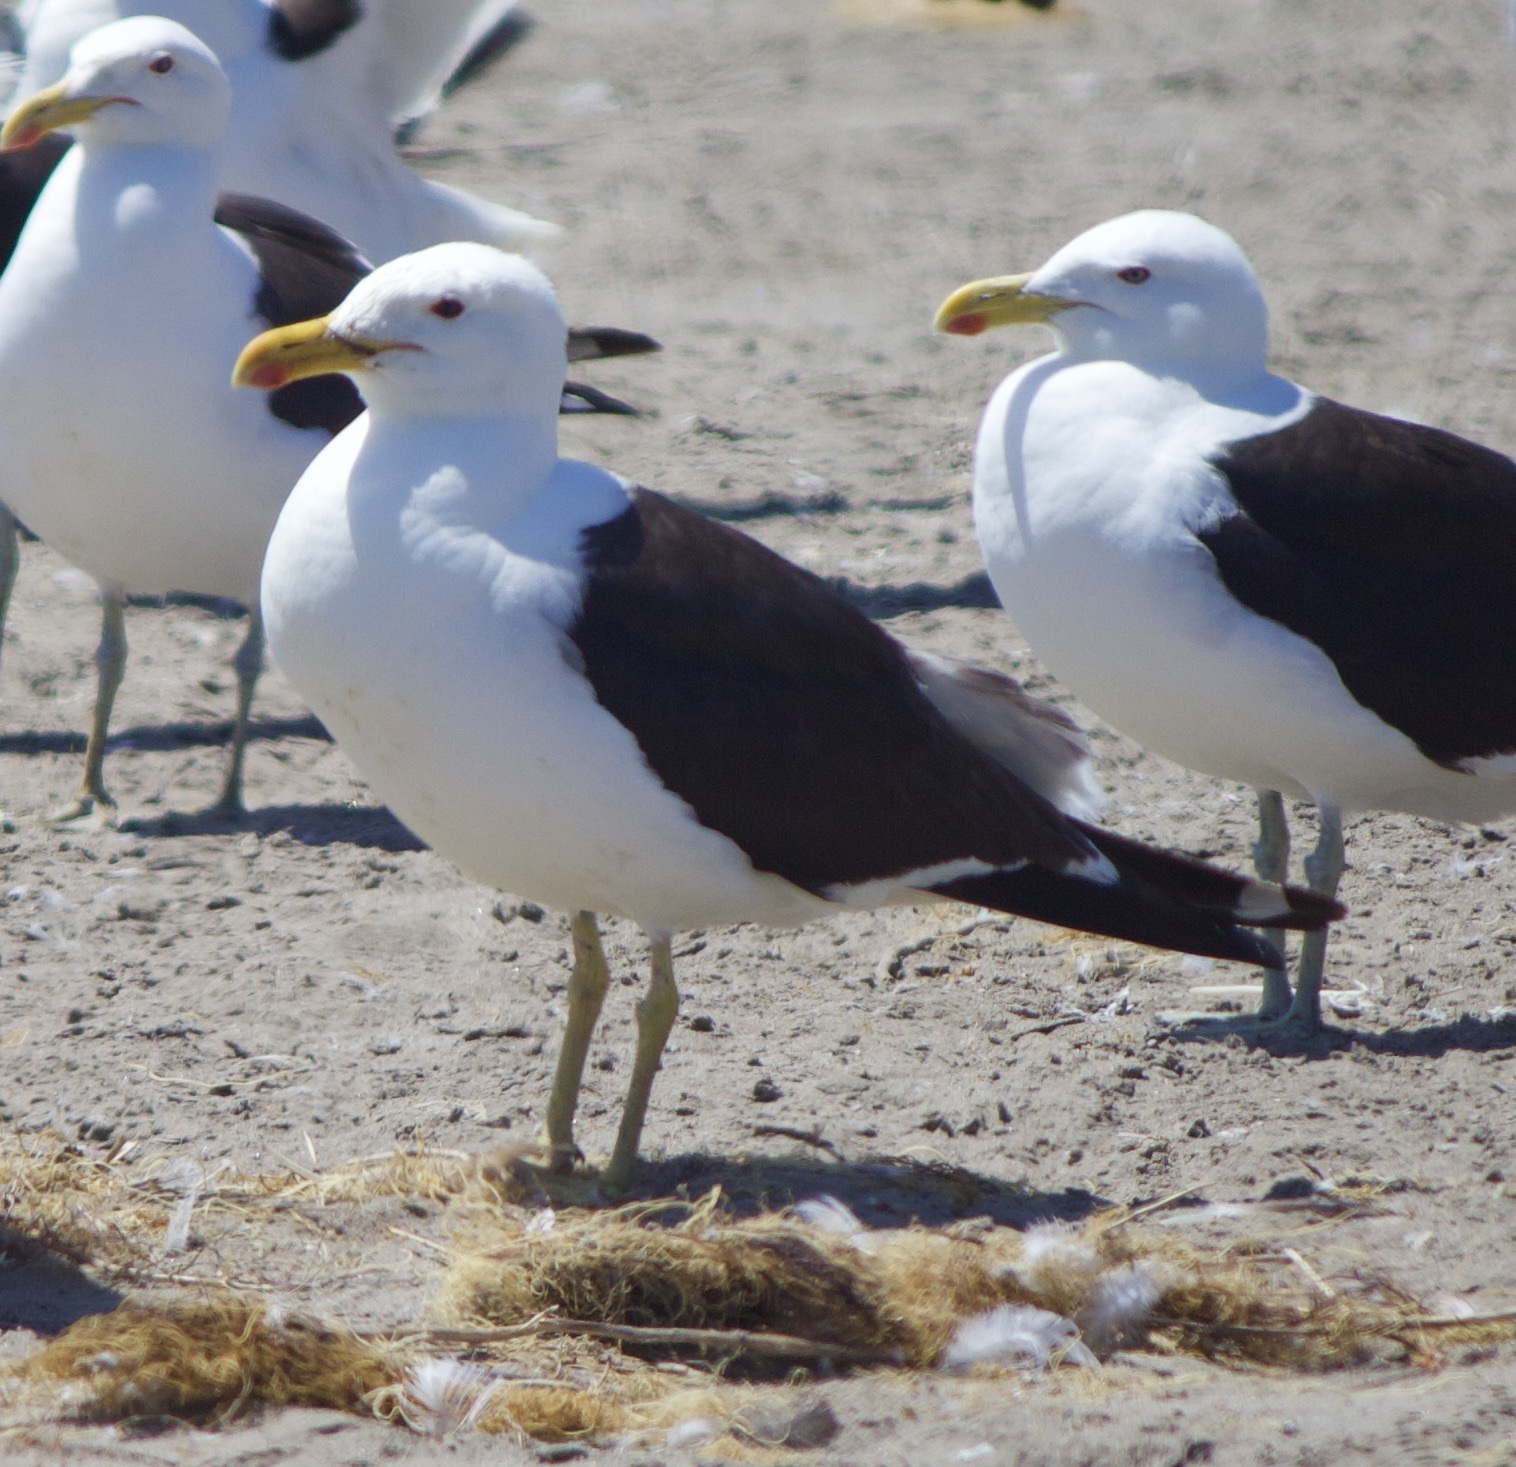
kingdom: Animalia
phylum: Chordata
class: Aves
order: Charadriiformes
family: Laridae
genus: Larus
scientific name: Larus dominicanus
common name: Kelp gull
